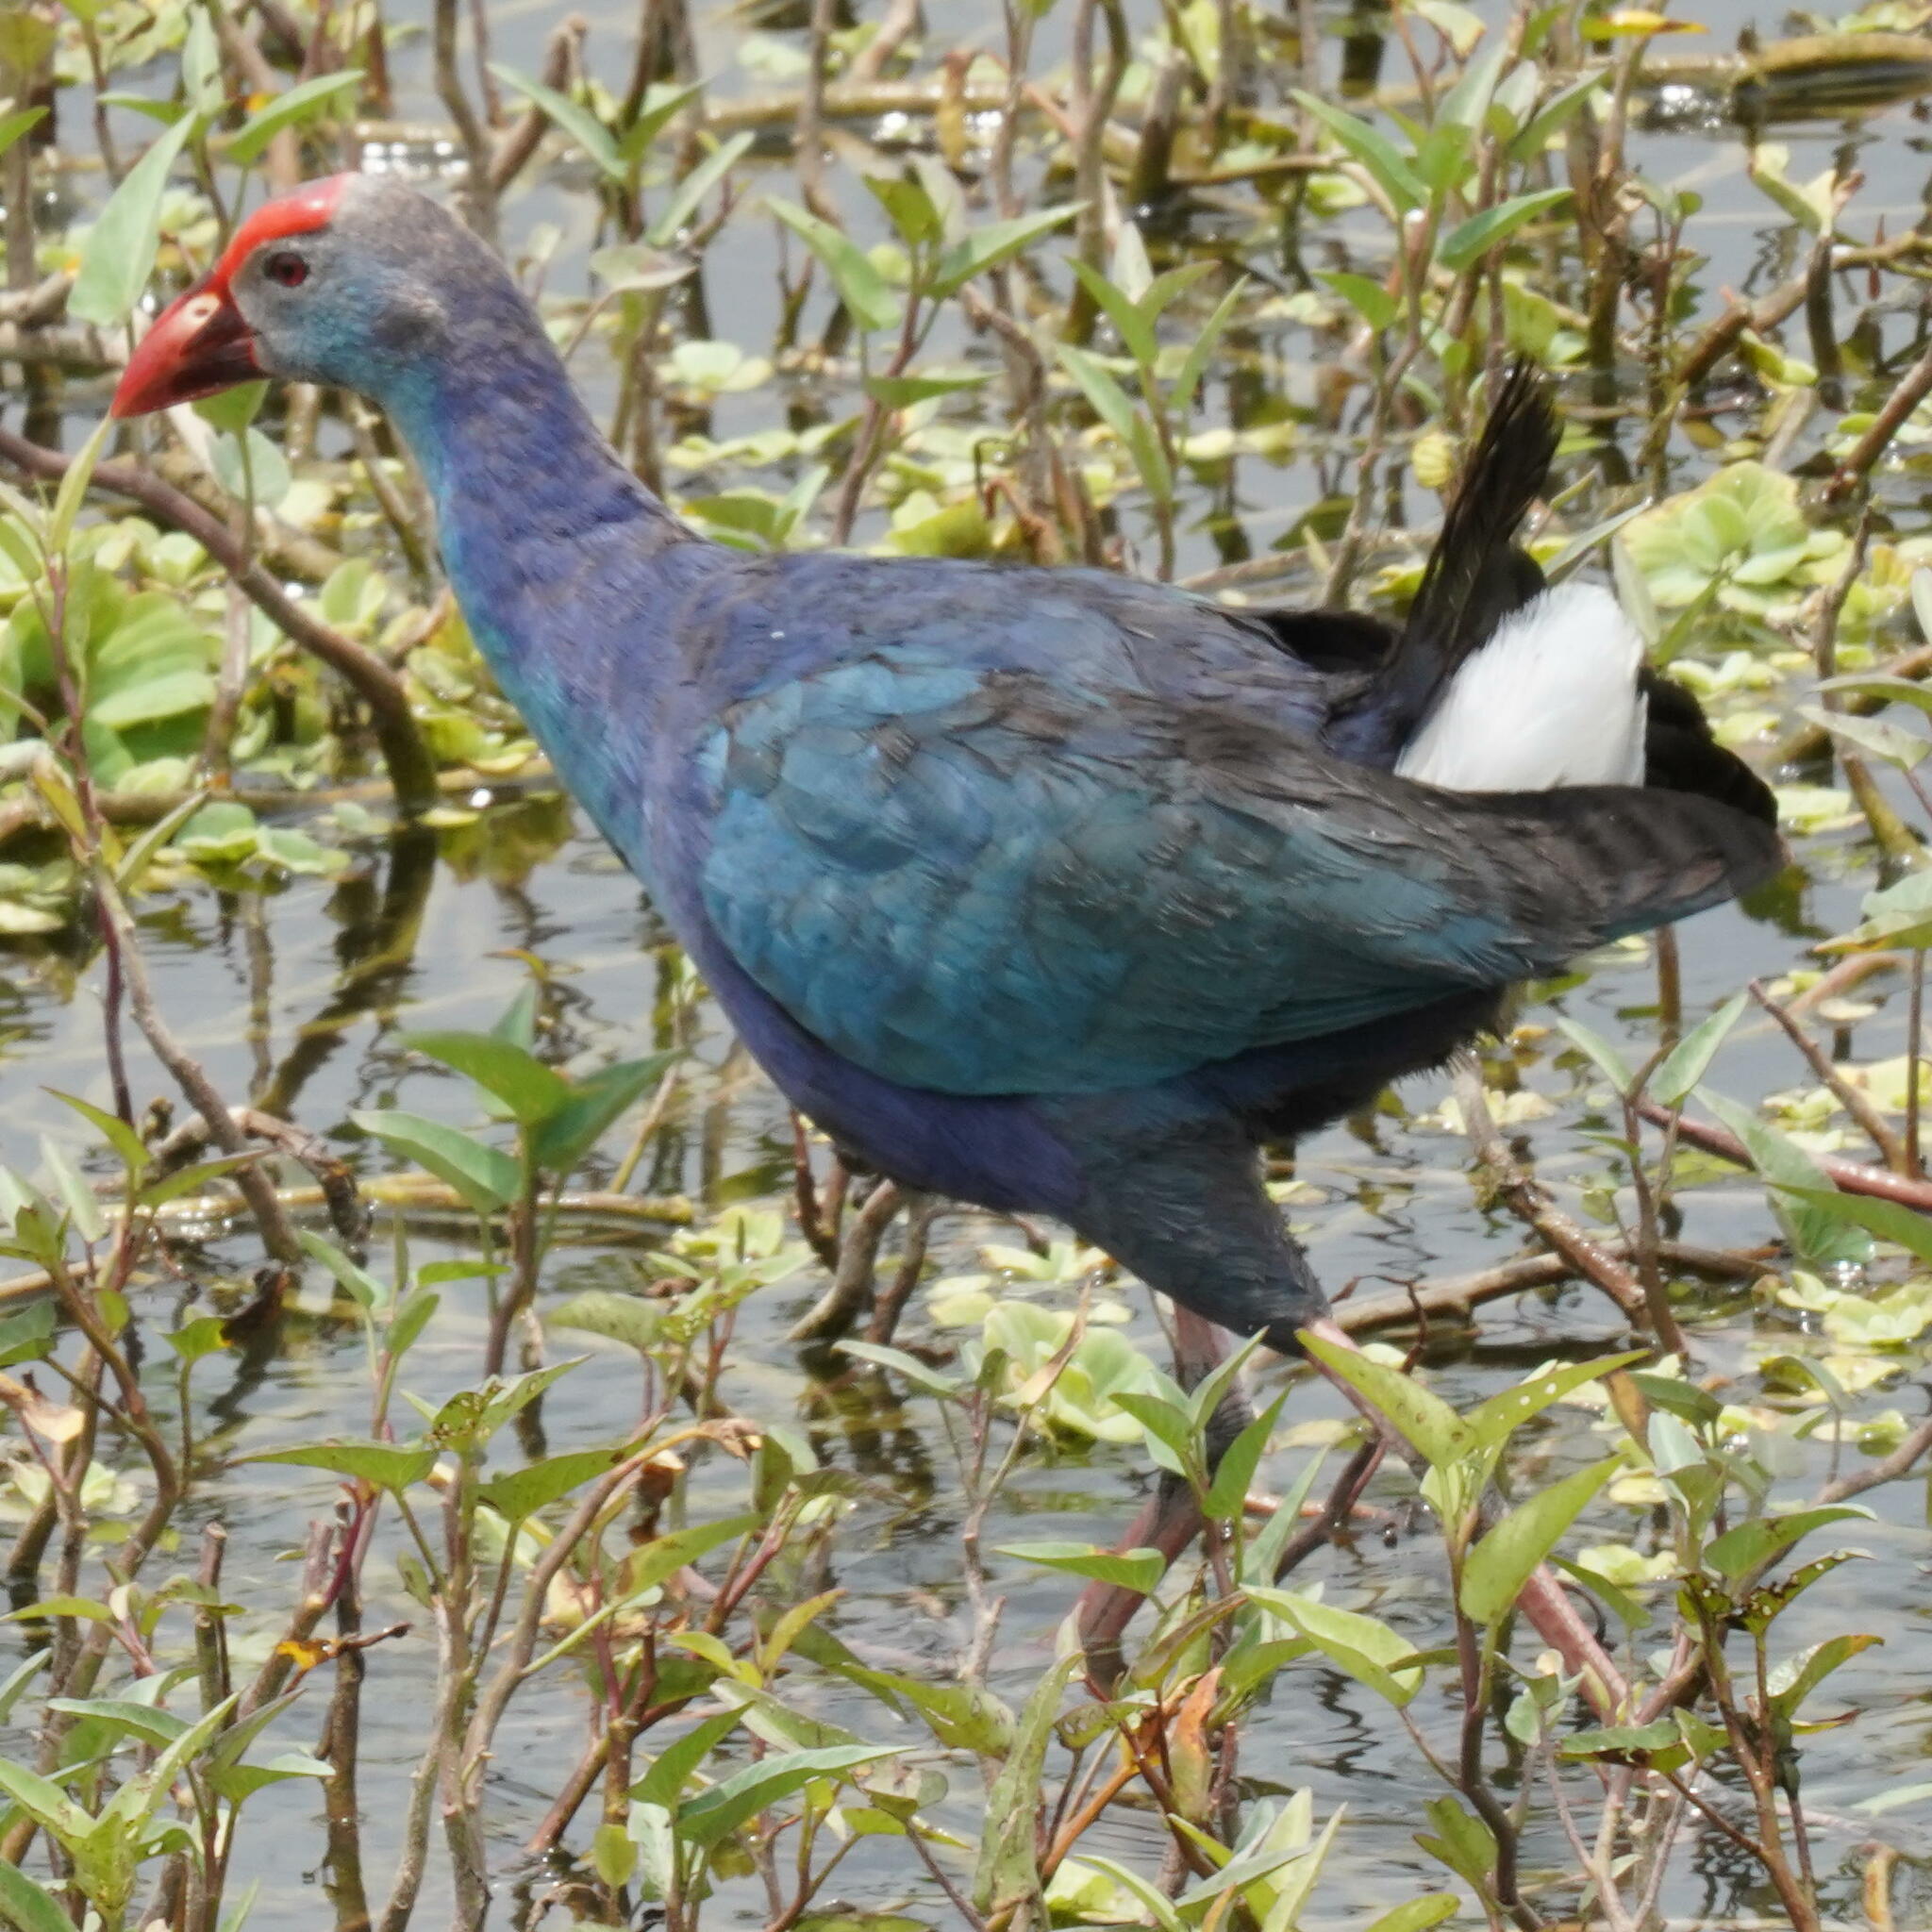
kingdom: Animalia
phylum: Chordata
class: Aves
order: Gruiformes
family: Rallidae
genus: Porphyrio
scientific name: Porphyrio porphyrio
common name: Purple swamphen
